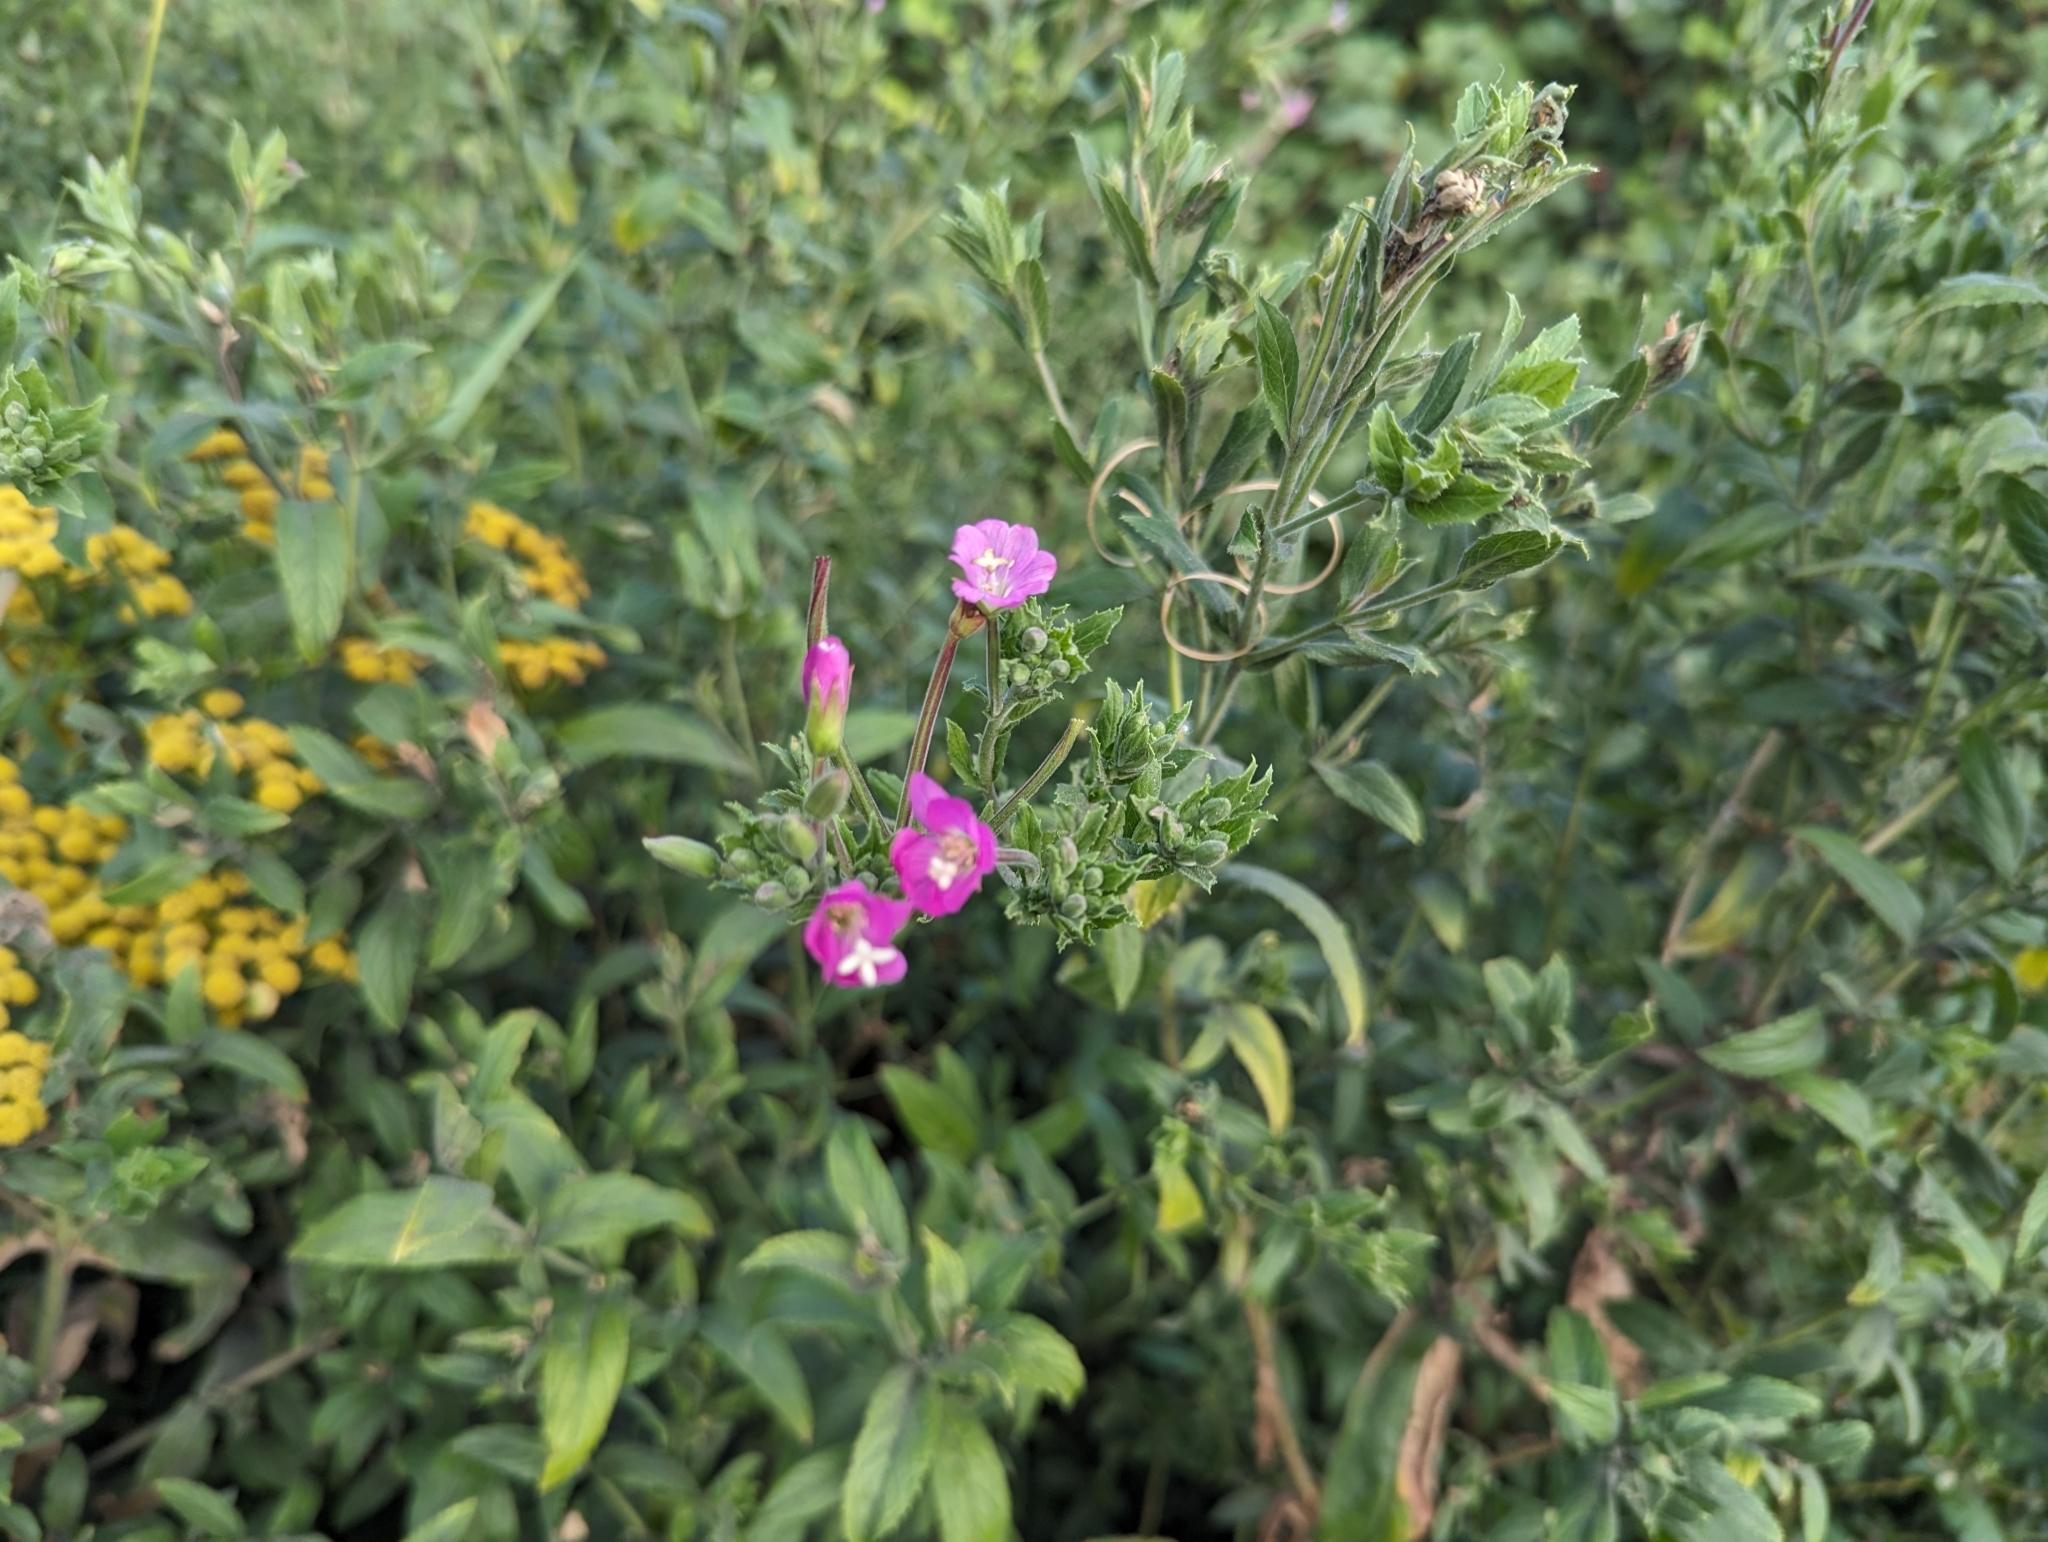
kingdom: Plantae
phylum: Tracheophyta
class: Magnoliopsida
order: Myrtales
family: Onagraceae
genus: Epilobium
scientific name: Epilobium hirsutum
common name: Great willowherb
